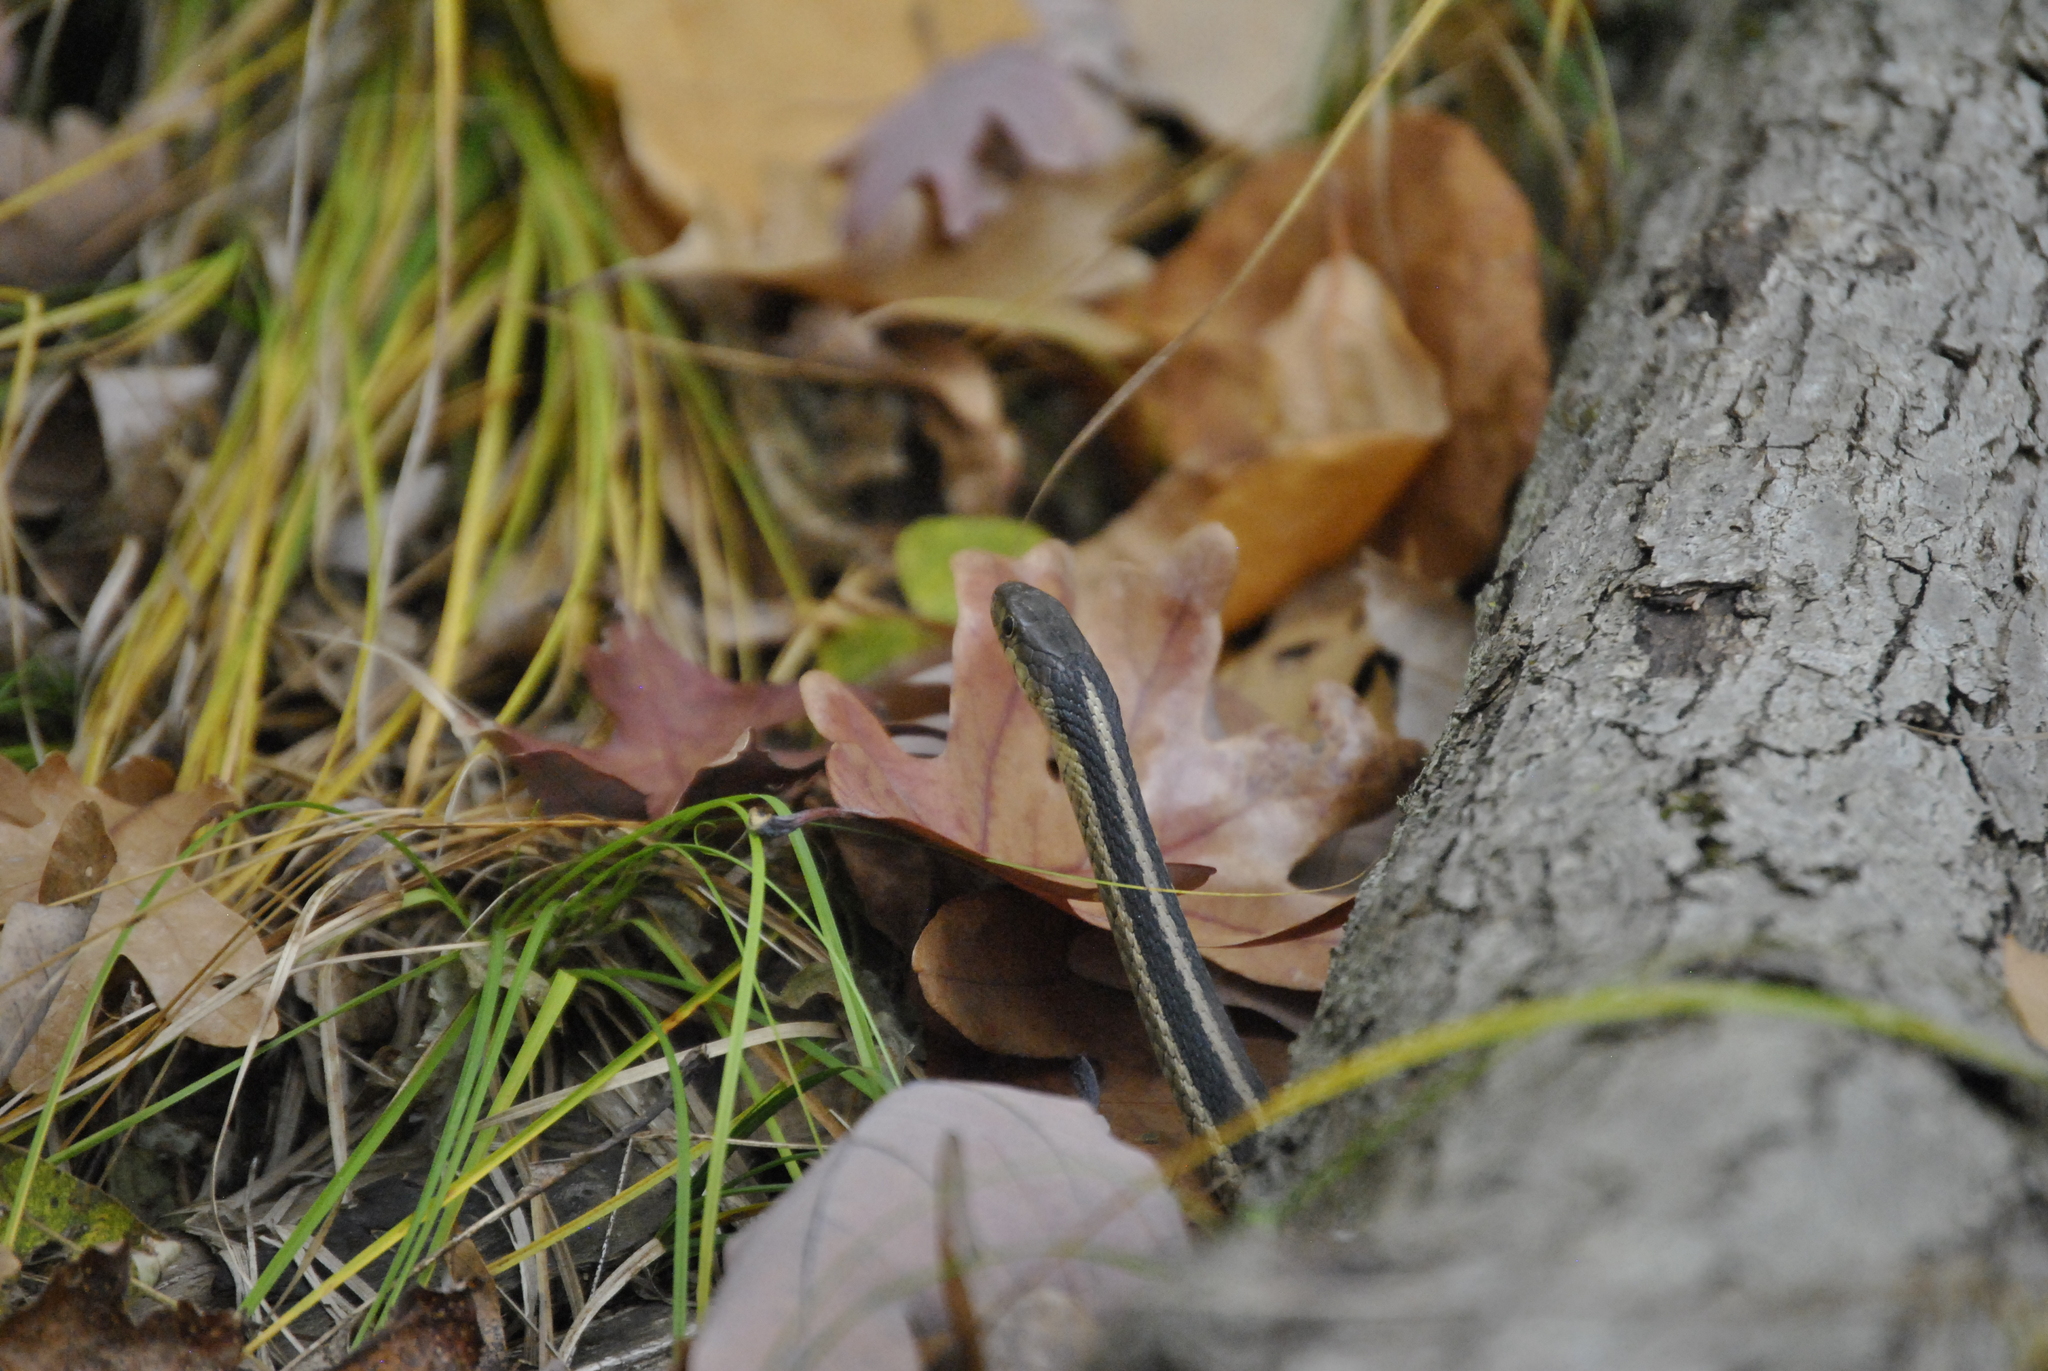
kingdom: Animalia
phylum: Chordata
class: Squamata
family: Colubridae
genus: Thamnophis
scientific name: Thamnophis sirtalis
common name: Common garter snake
